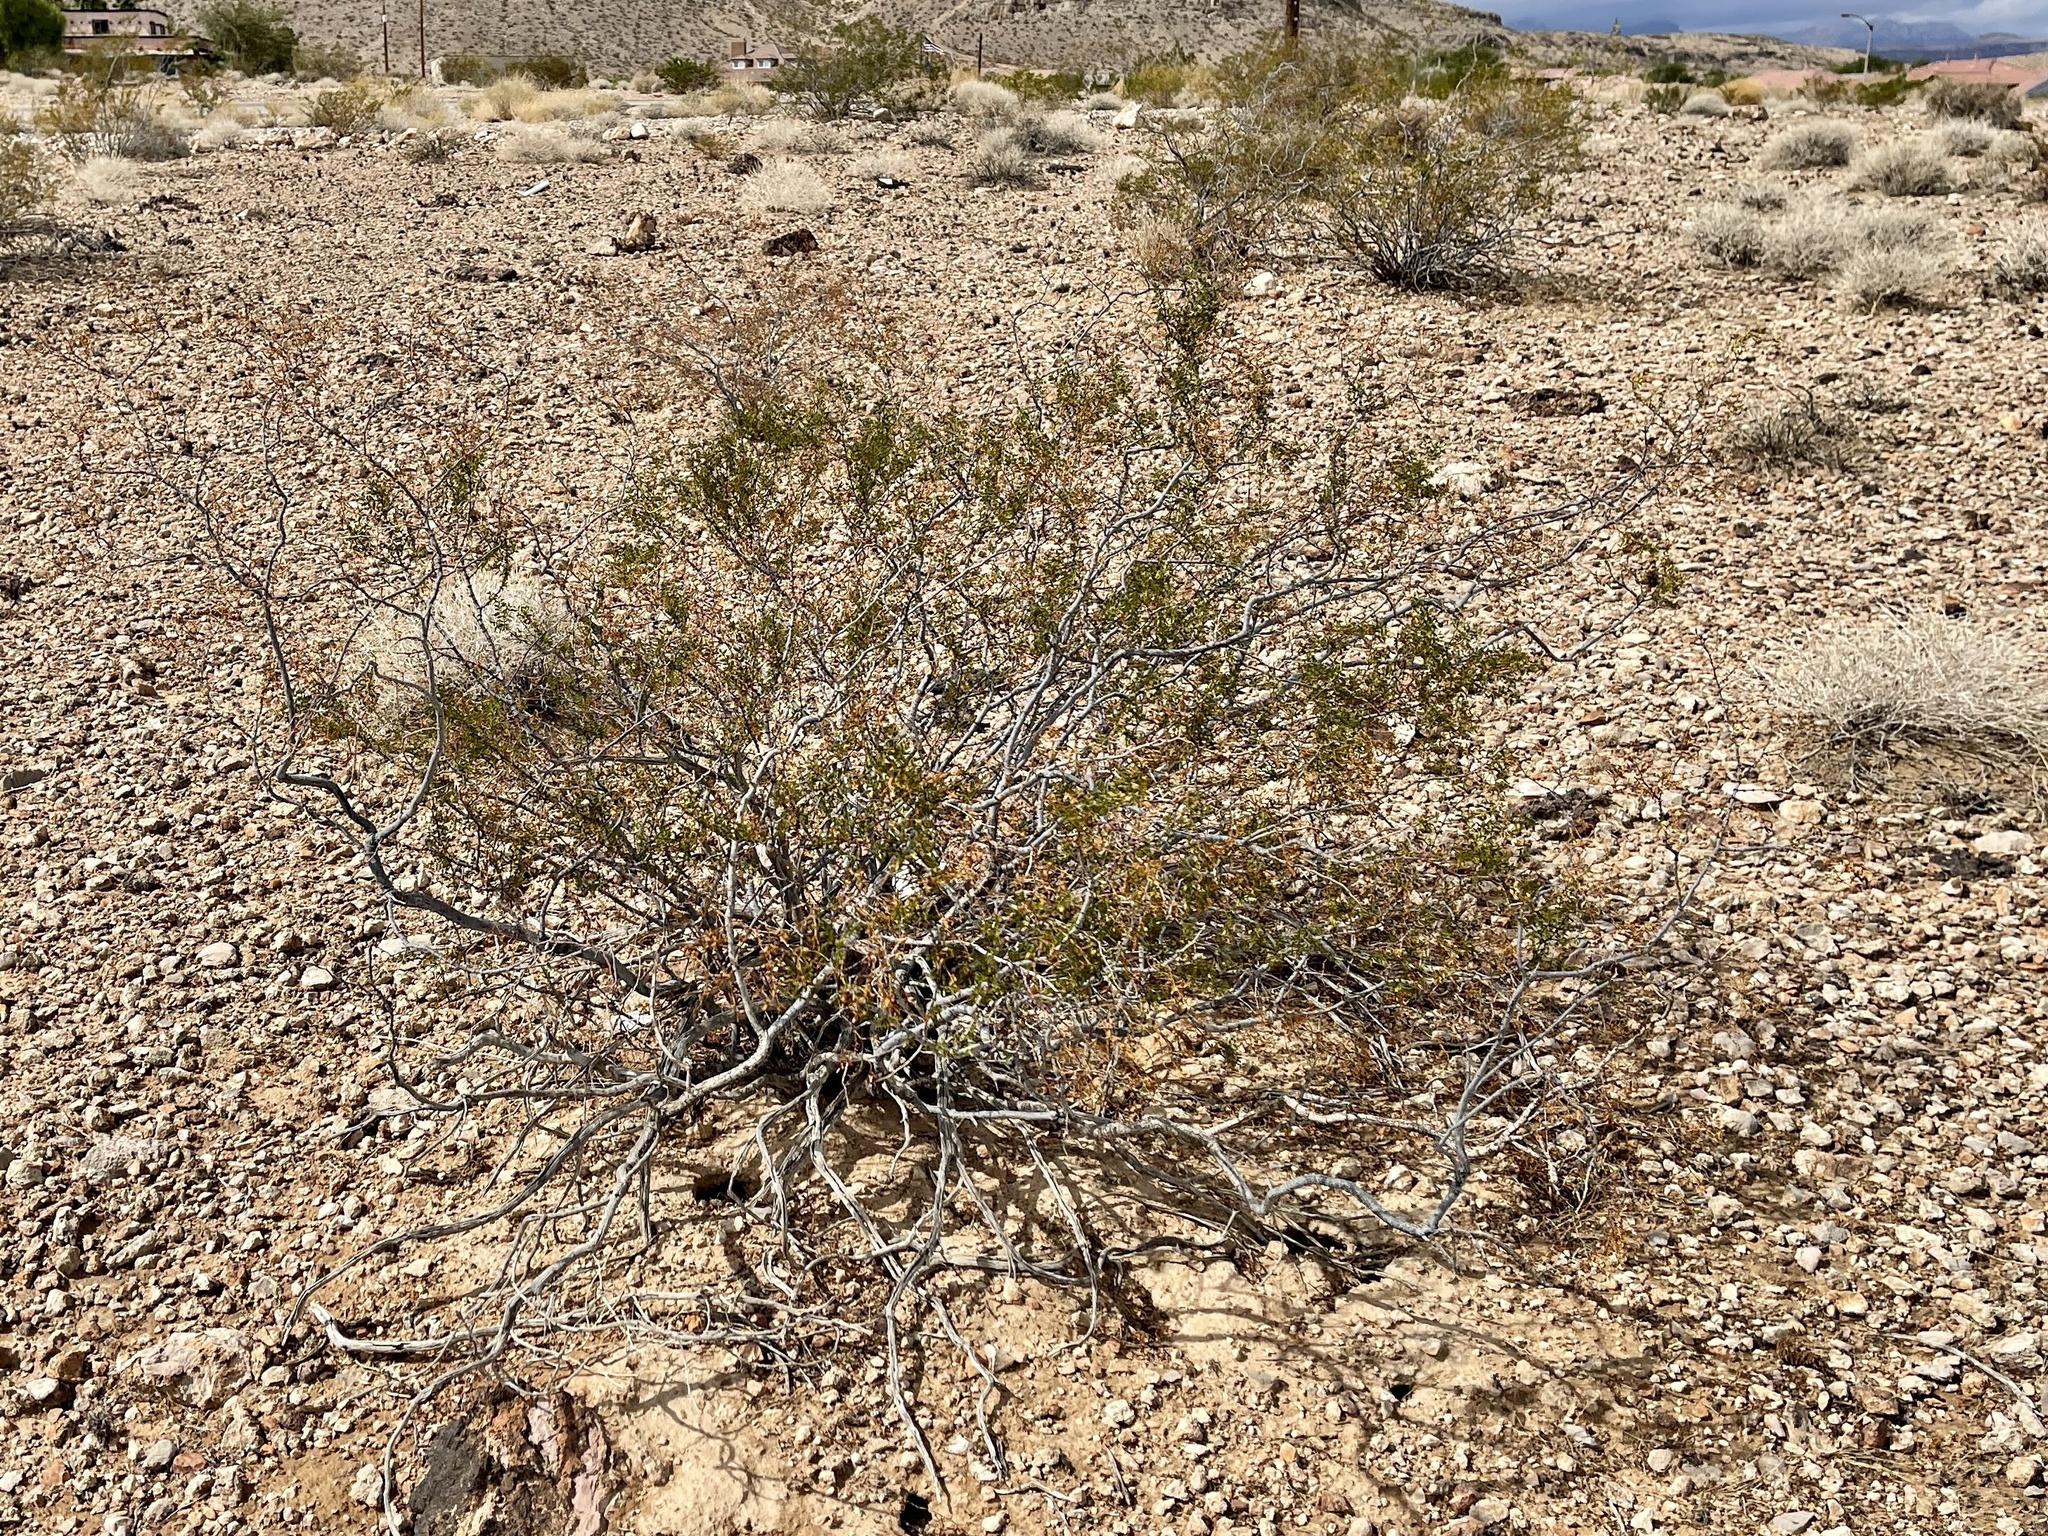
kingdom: Plantae
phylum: Tracheophyta
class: Magnoliopsida
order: Zygophyllales
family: Zygophyllaceae
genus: Larrea
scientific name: Larrea tridentata
